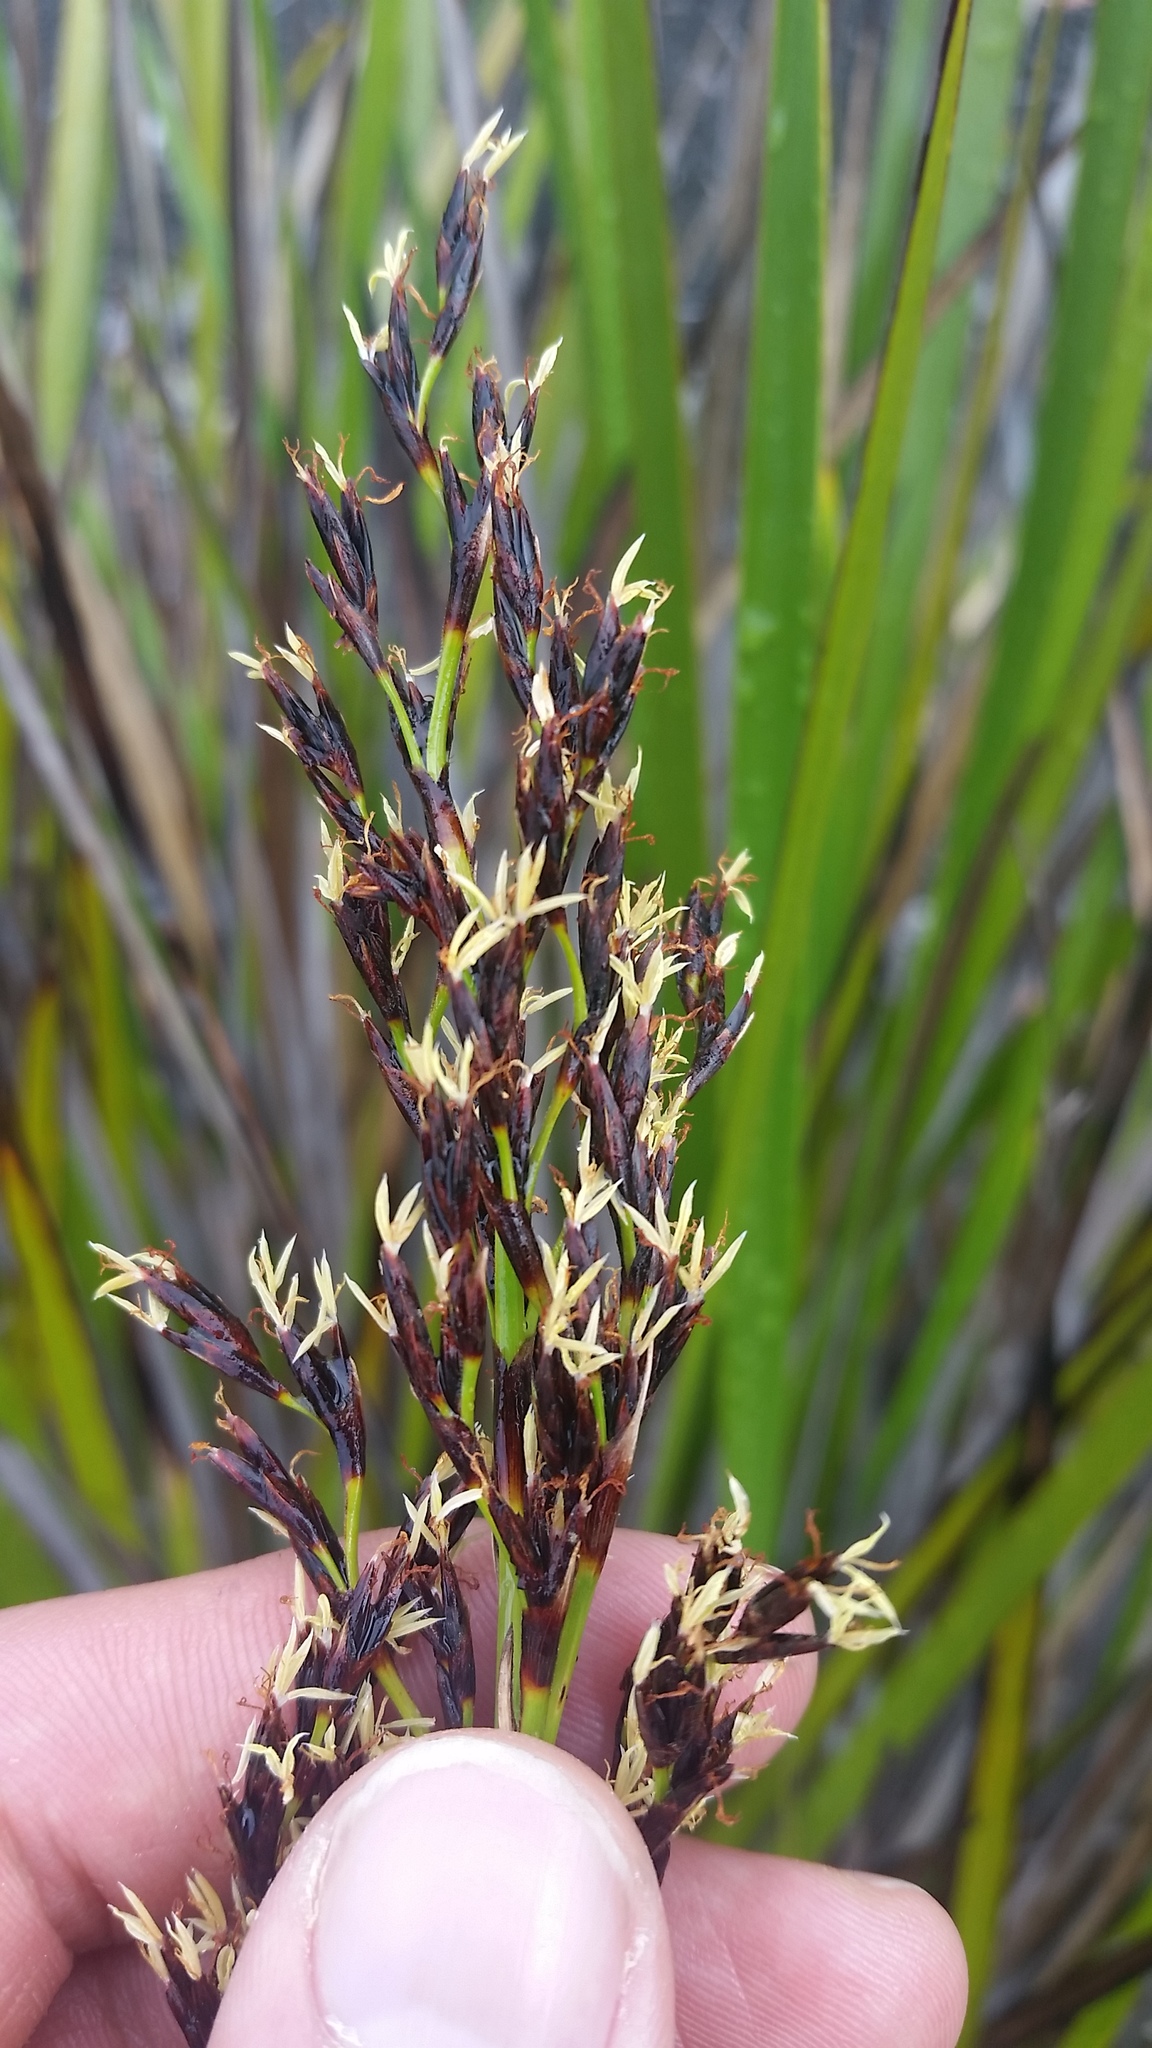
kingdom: Plantae
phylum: Tracheophyta
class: Liliopsida
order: Poales
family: Cyperaceae
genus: Machaerina
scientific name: Machaerina angustifolia
